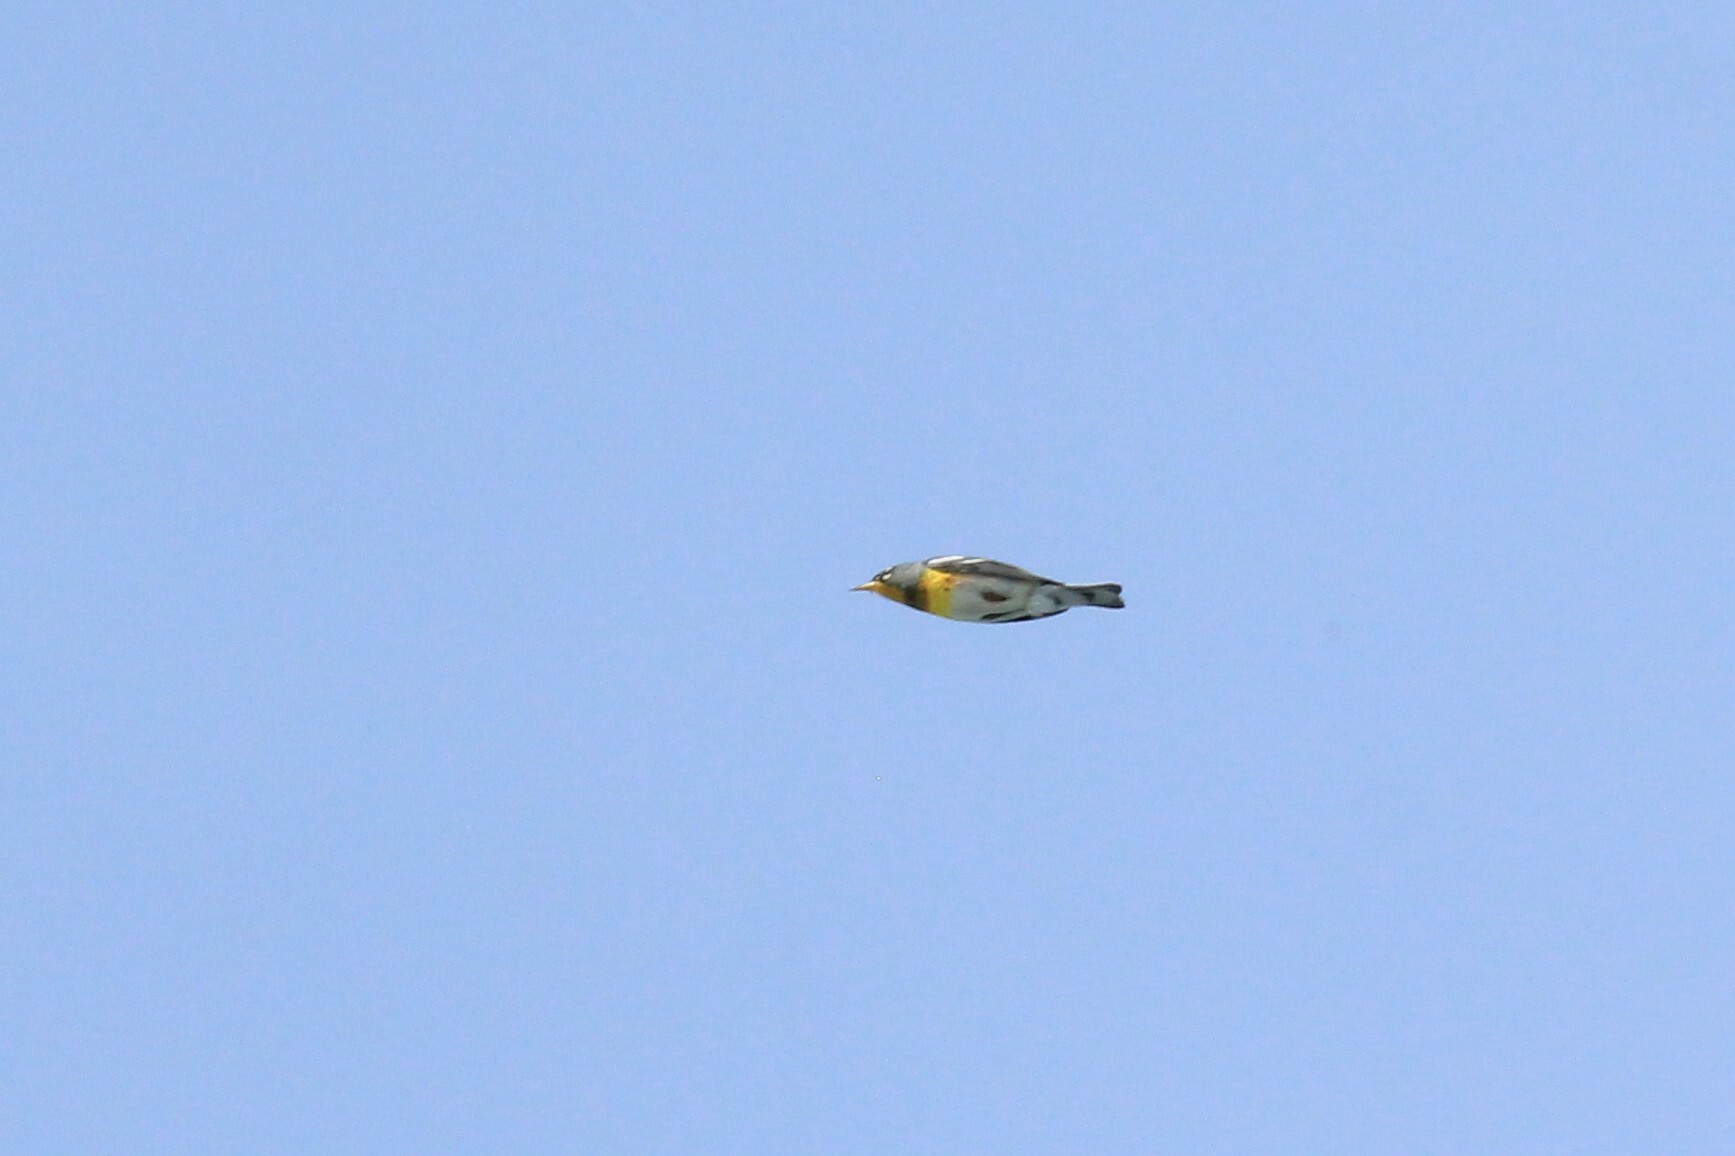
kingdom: Animalia
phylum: Chordata
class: Aves
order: Passeriformes
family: Parulidae
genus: Setophaga
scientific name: Setophaga americana
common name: Northern parula
